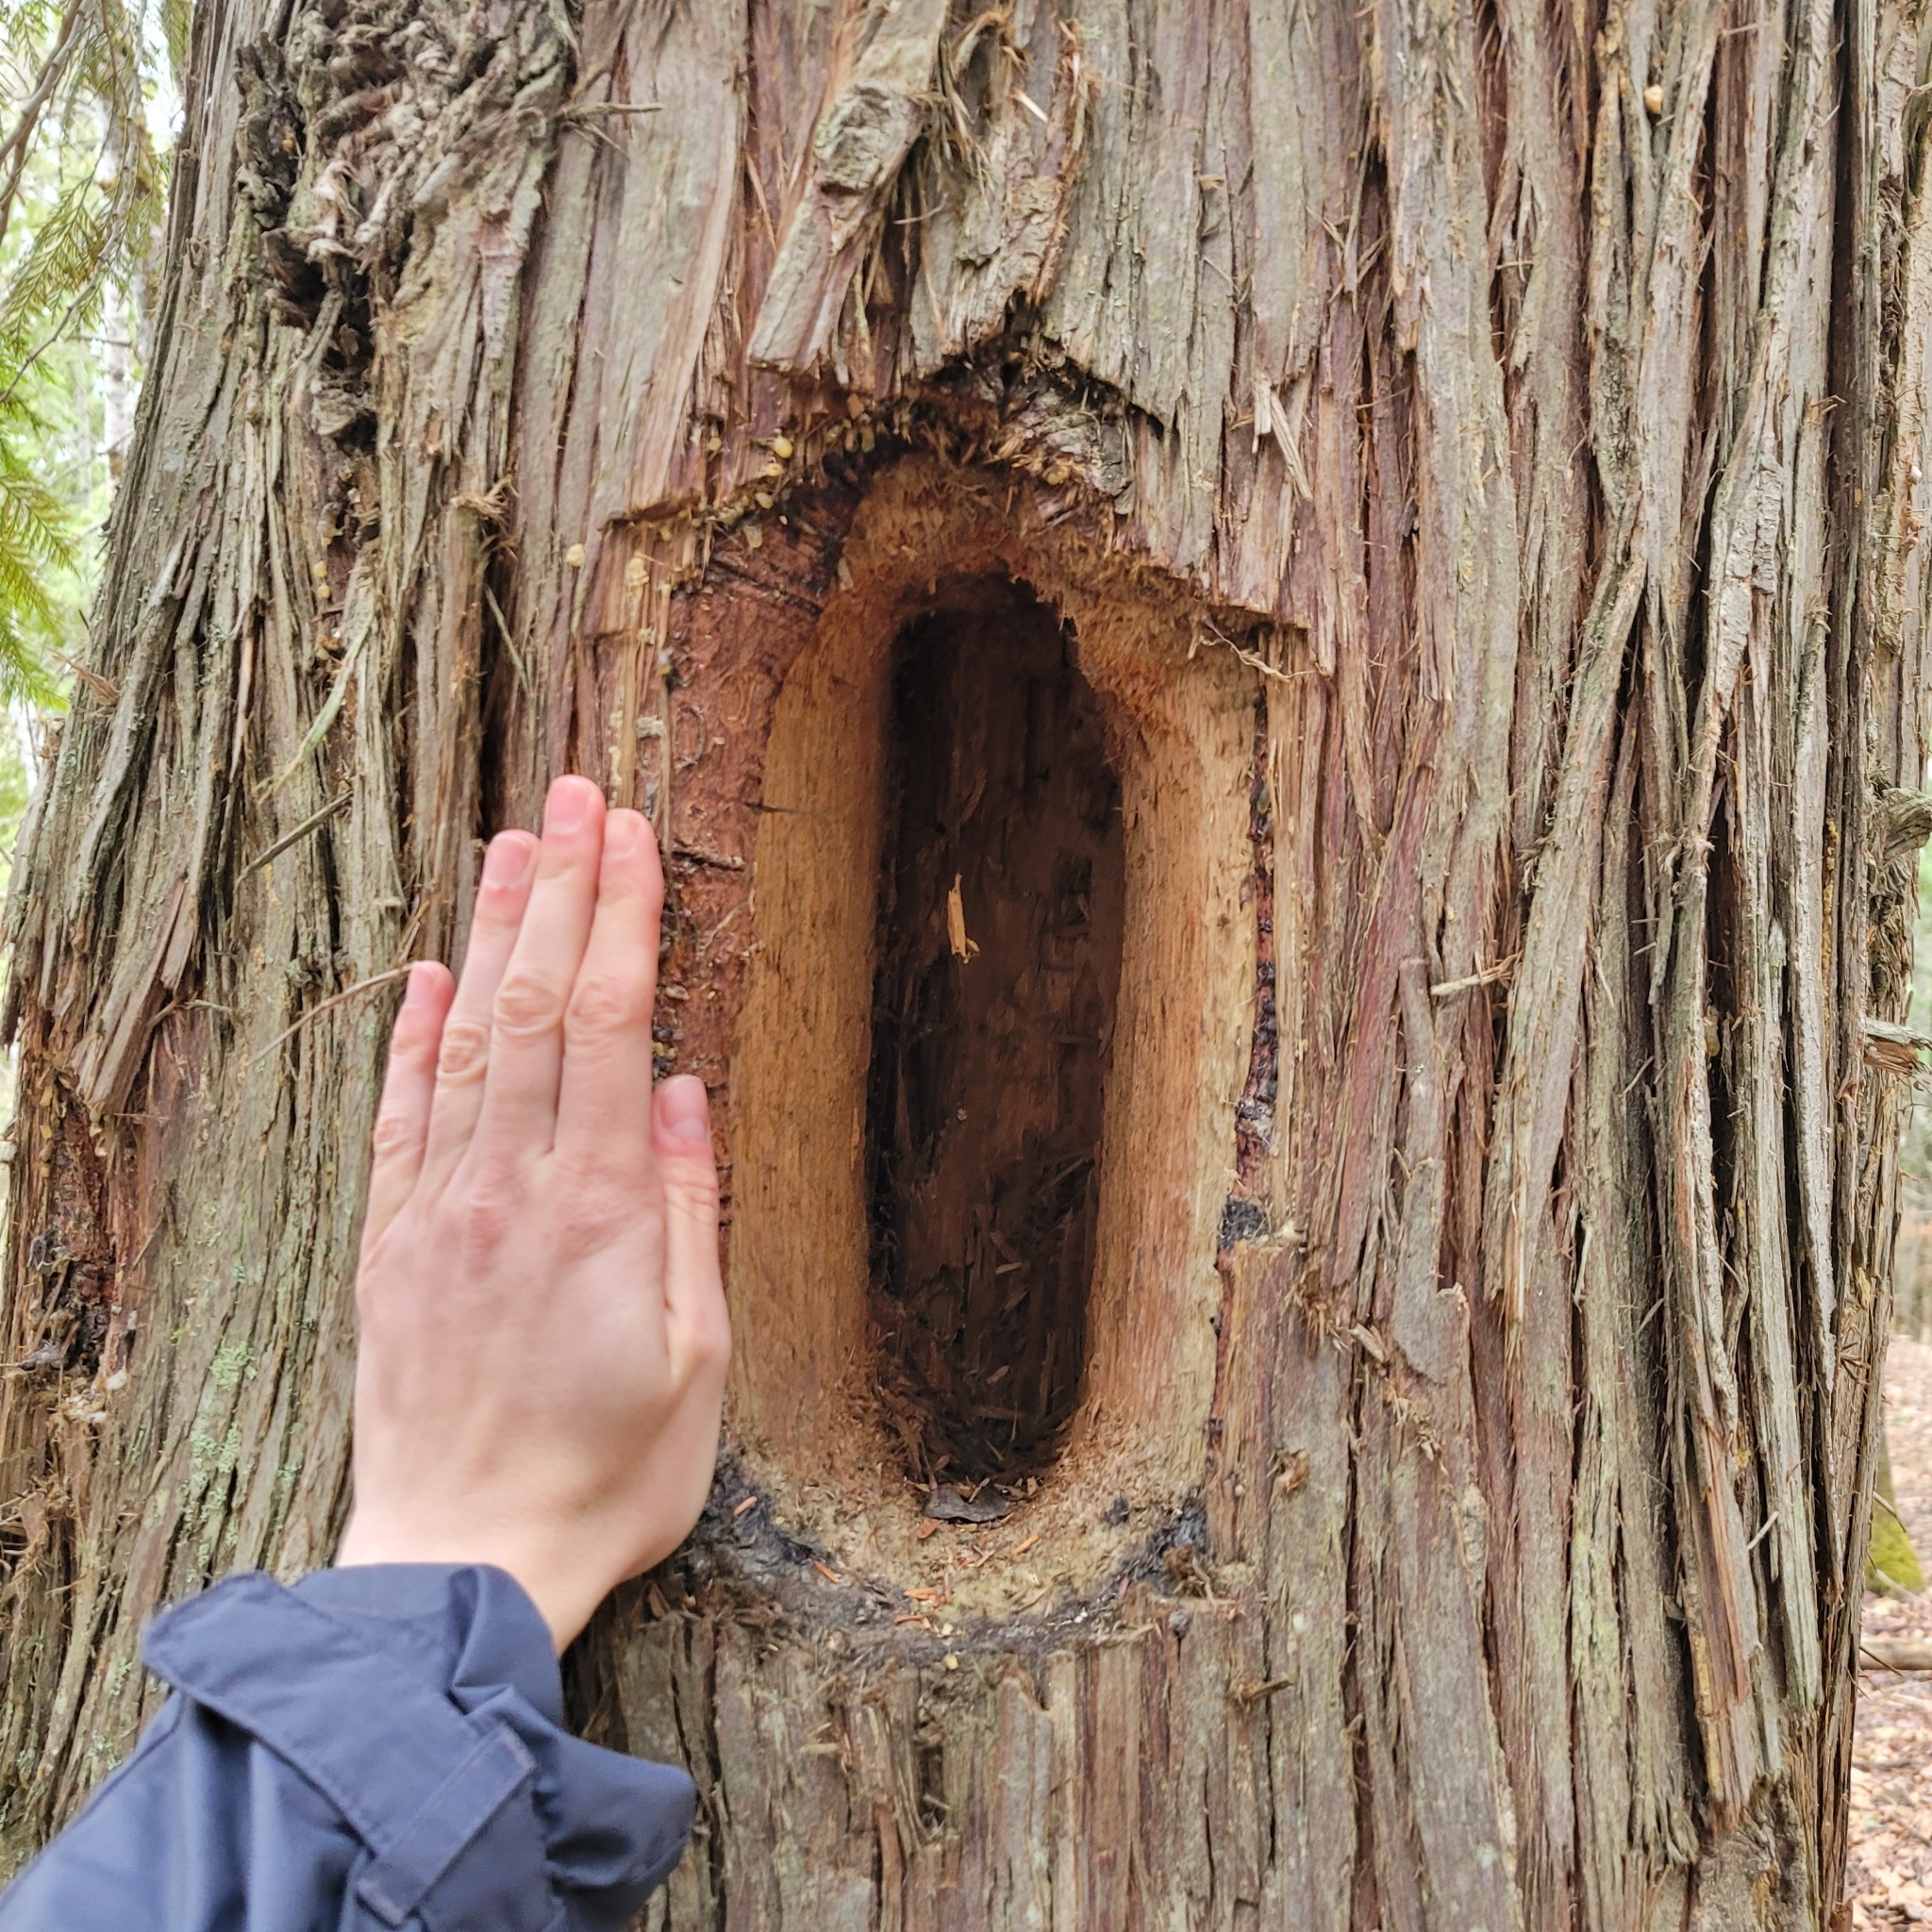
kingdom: Animalia
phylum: Chordata
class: Aves
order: Piciformes
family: Picidae
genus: Dryocopus
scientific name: Dryocopus pileatus
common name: Pileated woodpecker
